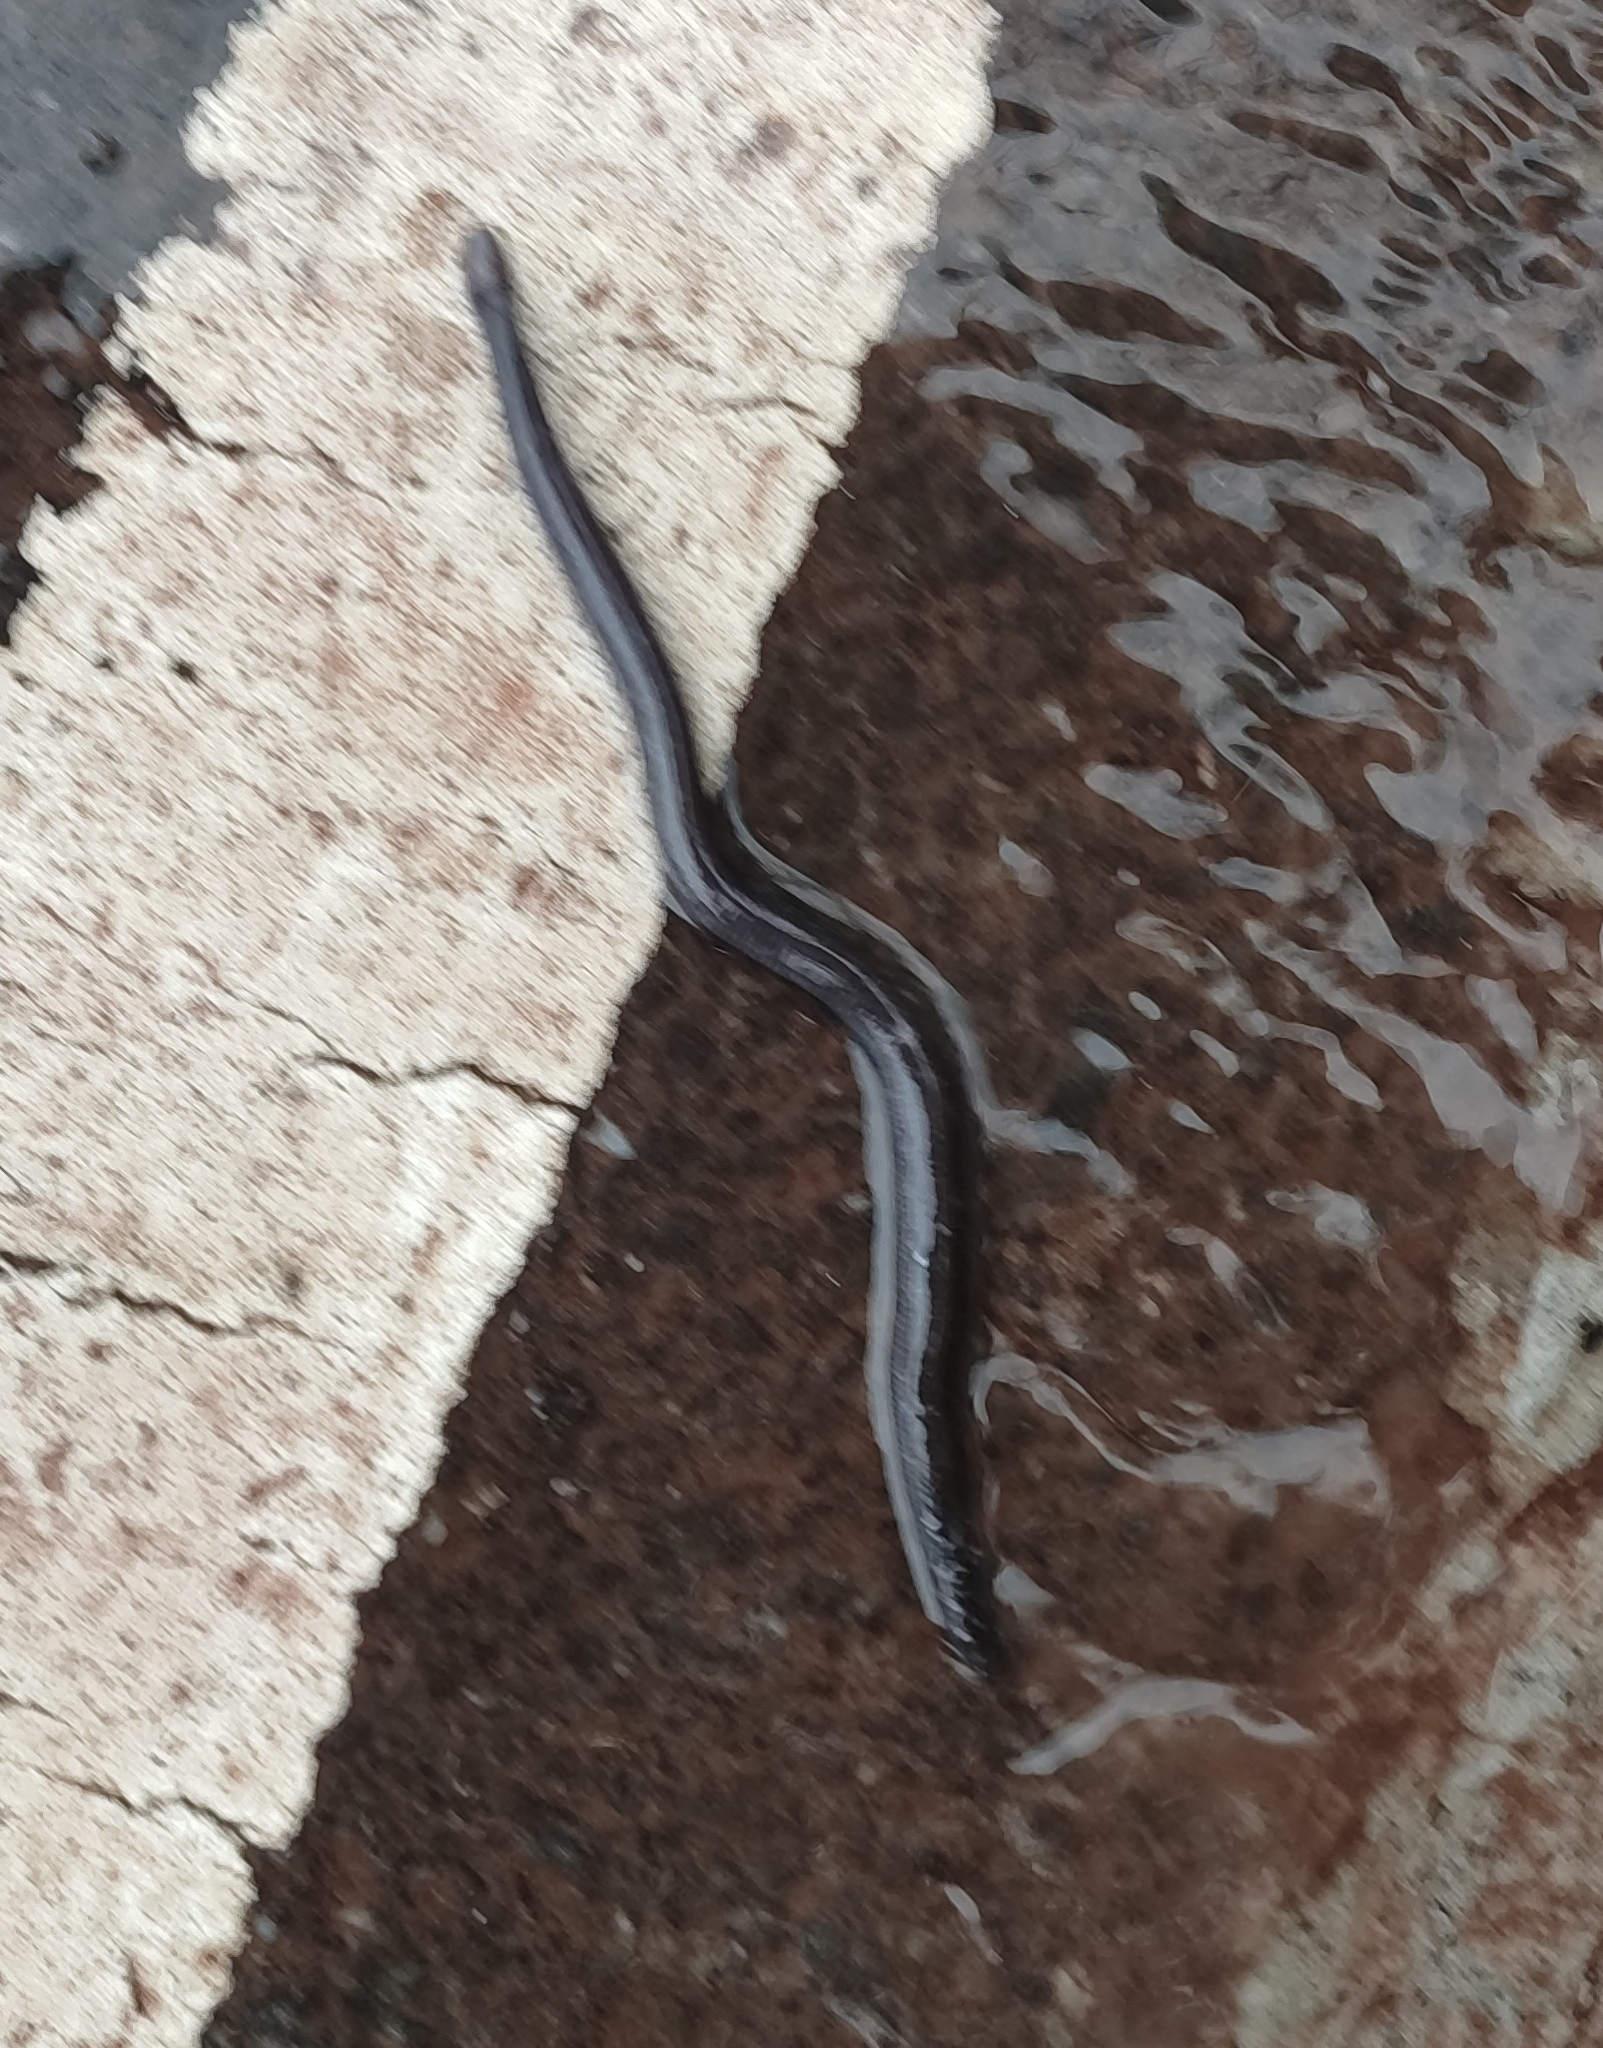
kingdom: Animalia
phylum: Chordata
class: Amphibia
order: Gymnophiona
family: Ichthyophiidae
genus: Uraeotyphlus
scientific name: Uraeotyphlus
